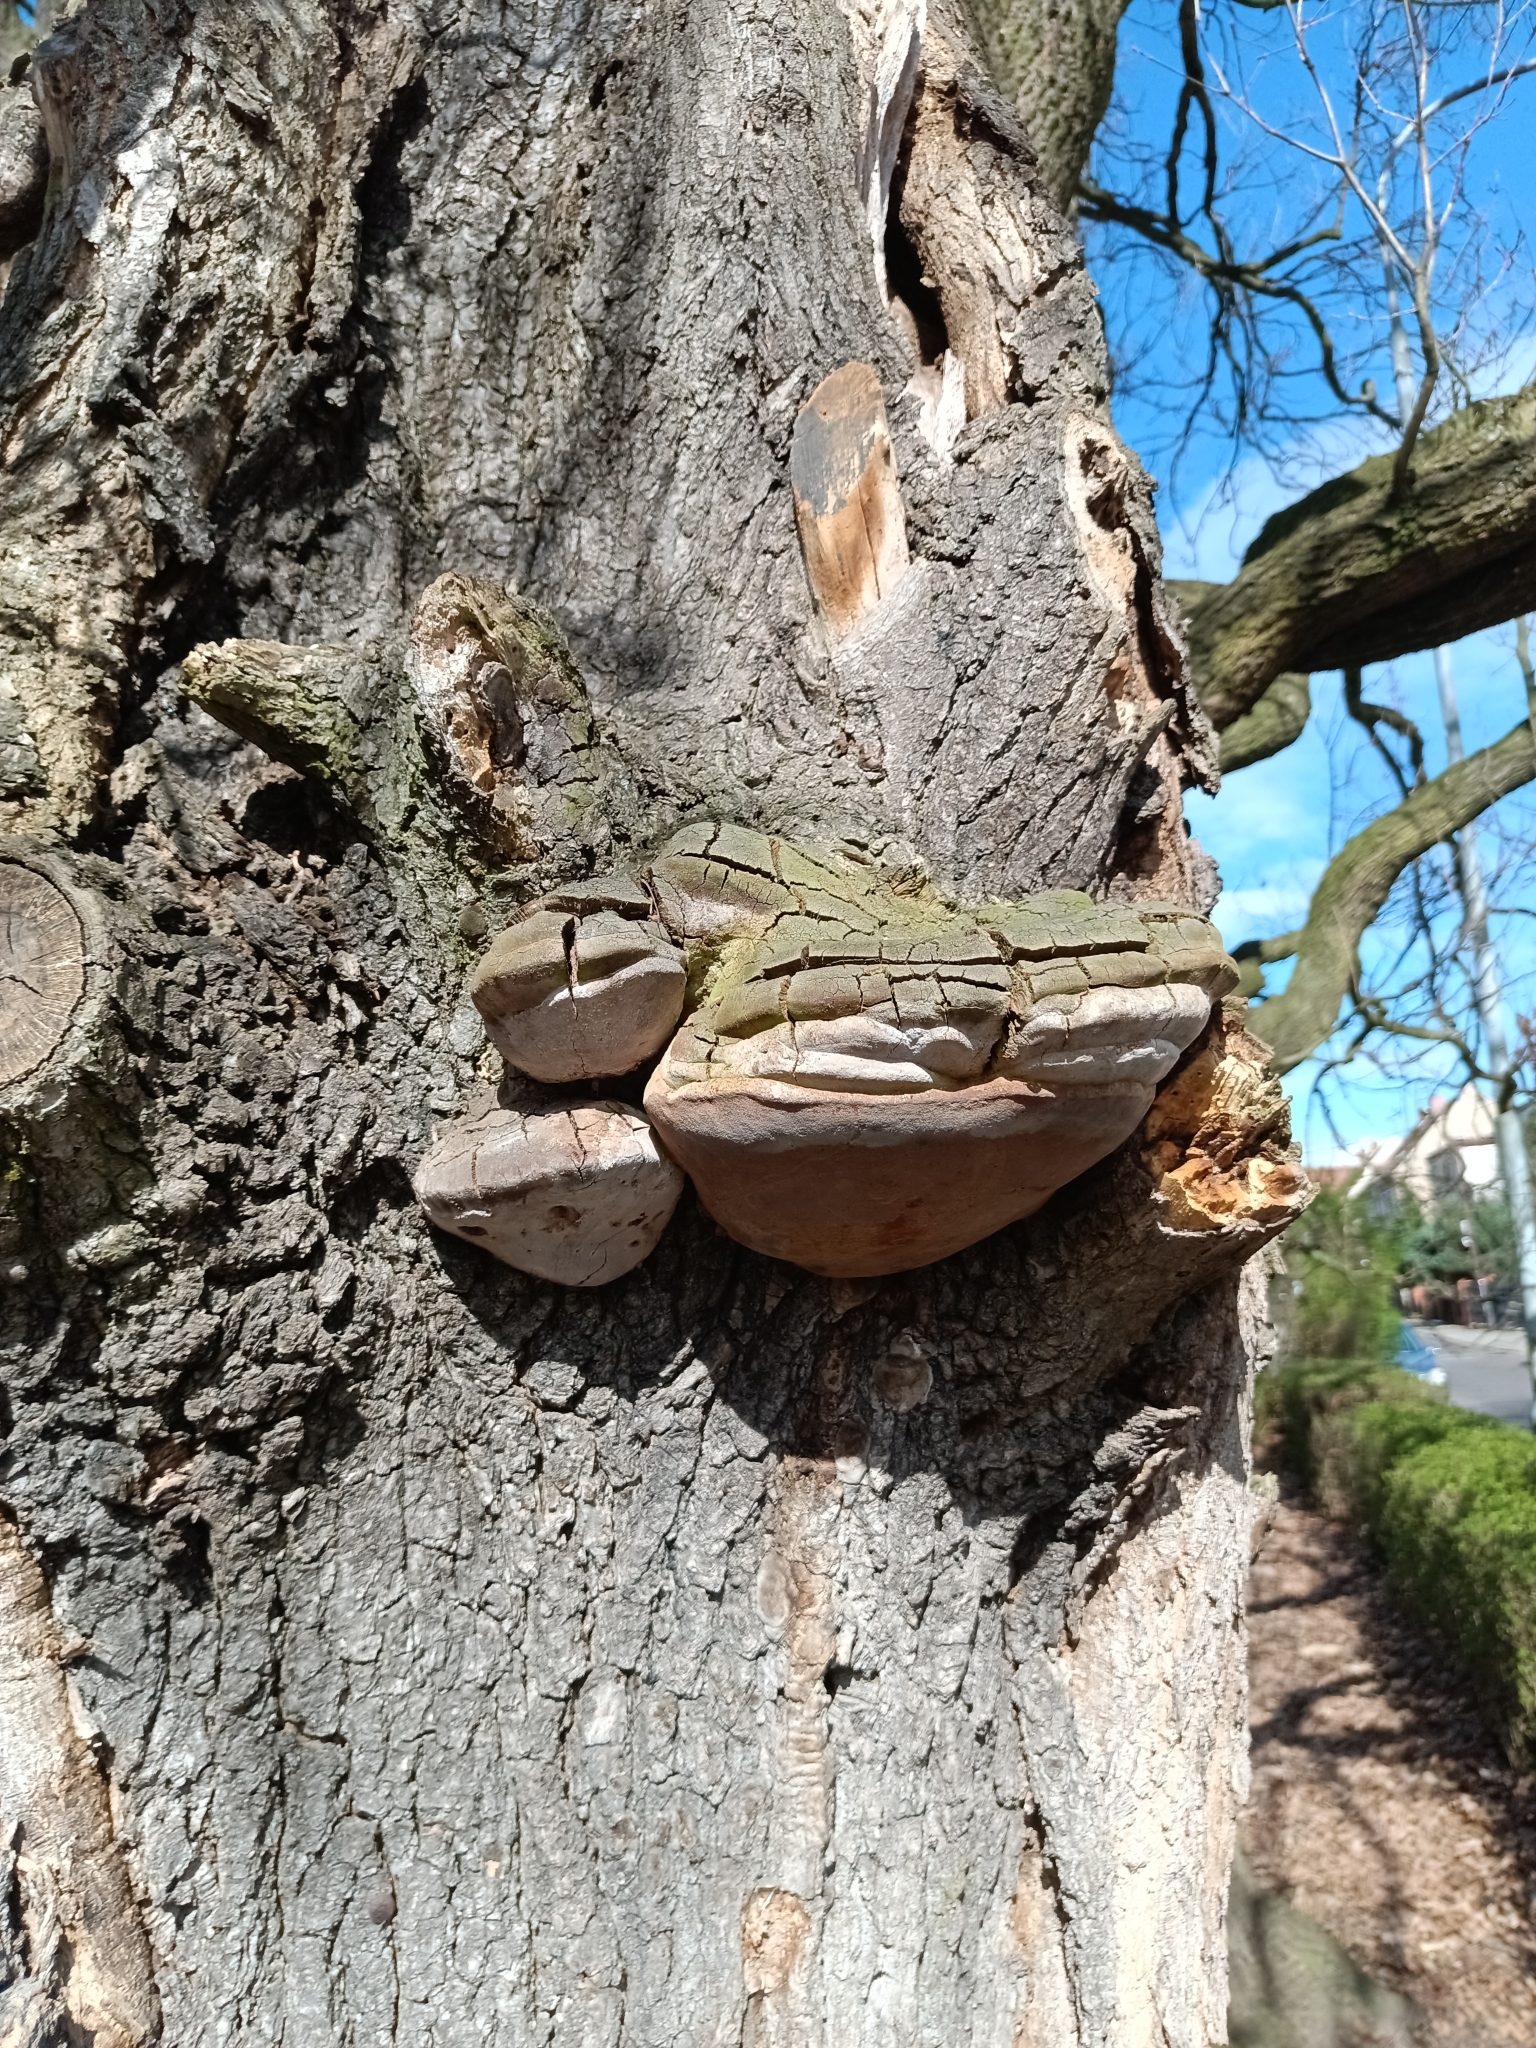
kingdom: Fungi
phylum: Basidiomycota
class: Agaricomycetes
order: Hymenochaetales
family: Hymenochaetaceae
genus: Fomitiporia
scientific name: Fomitiporia robusta
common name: Robust bracket
